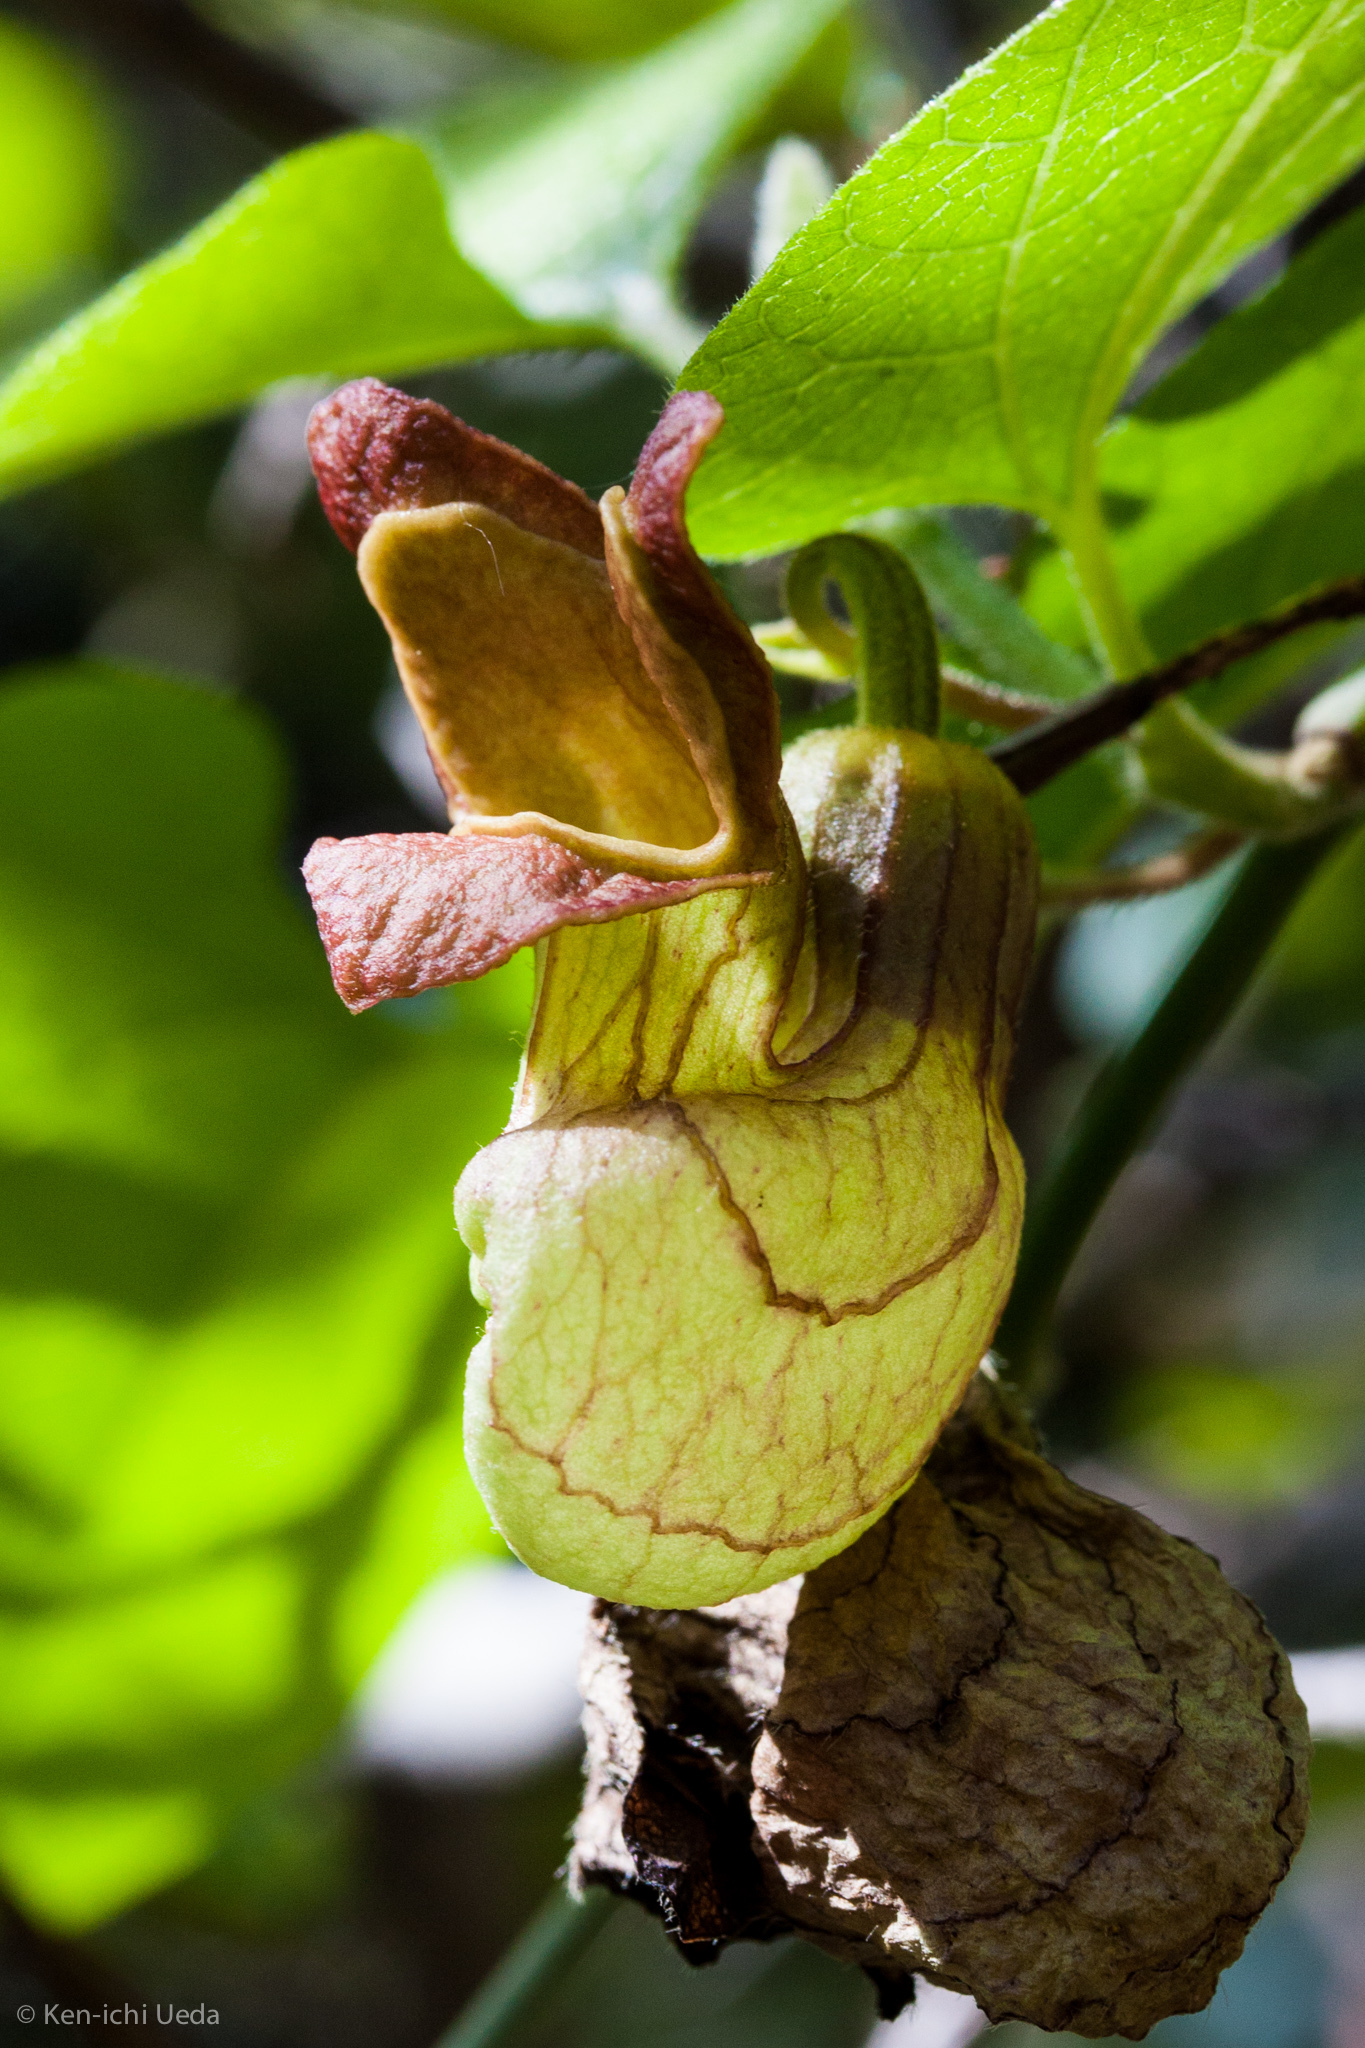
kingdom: Plantae
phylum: Tracheophyta
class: Magnoliopsida
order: Piperales
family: Aristolochiaceae
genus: Isotrema
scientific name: Isotrema californicum
